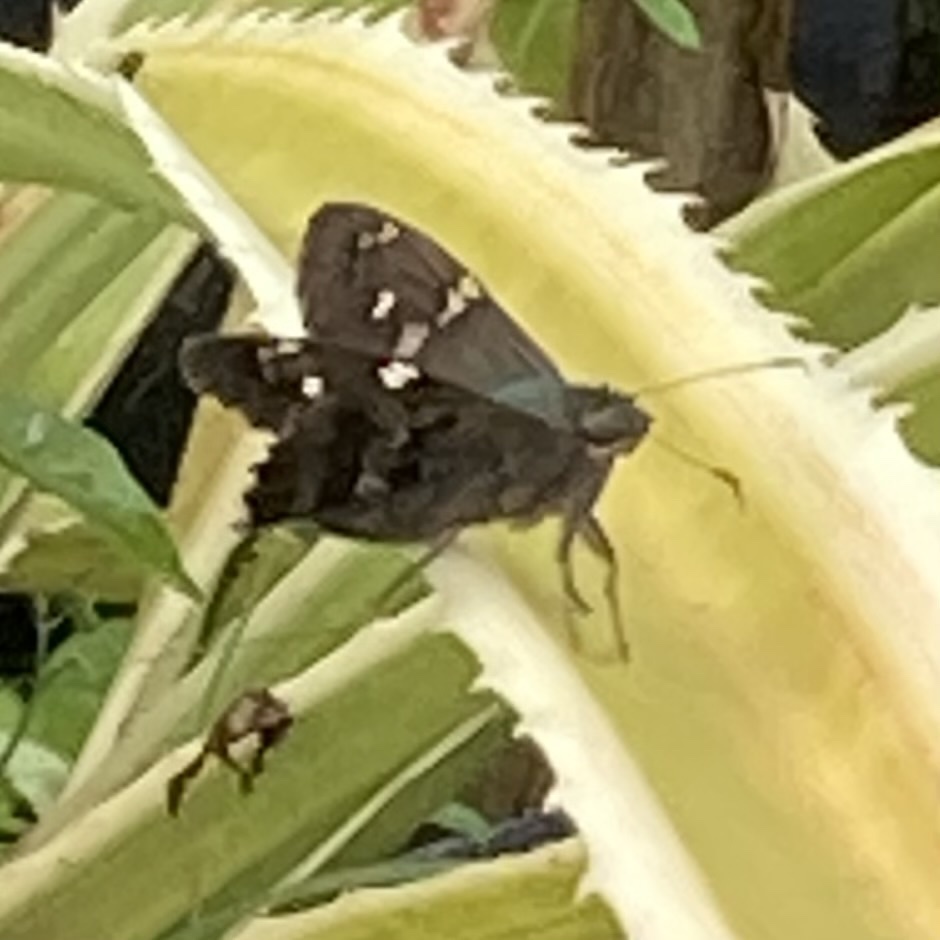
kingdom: Animalia
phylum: Arthropoda
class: Insecta
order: Lepidoptera
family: Hesperiidae
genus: Urbanus
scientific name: Urbanus proteus
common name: Long-tailed skipper
